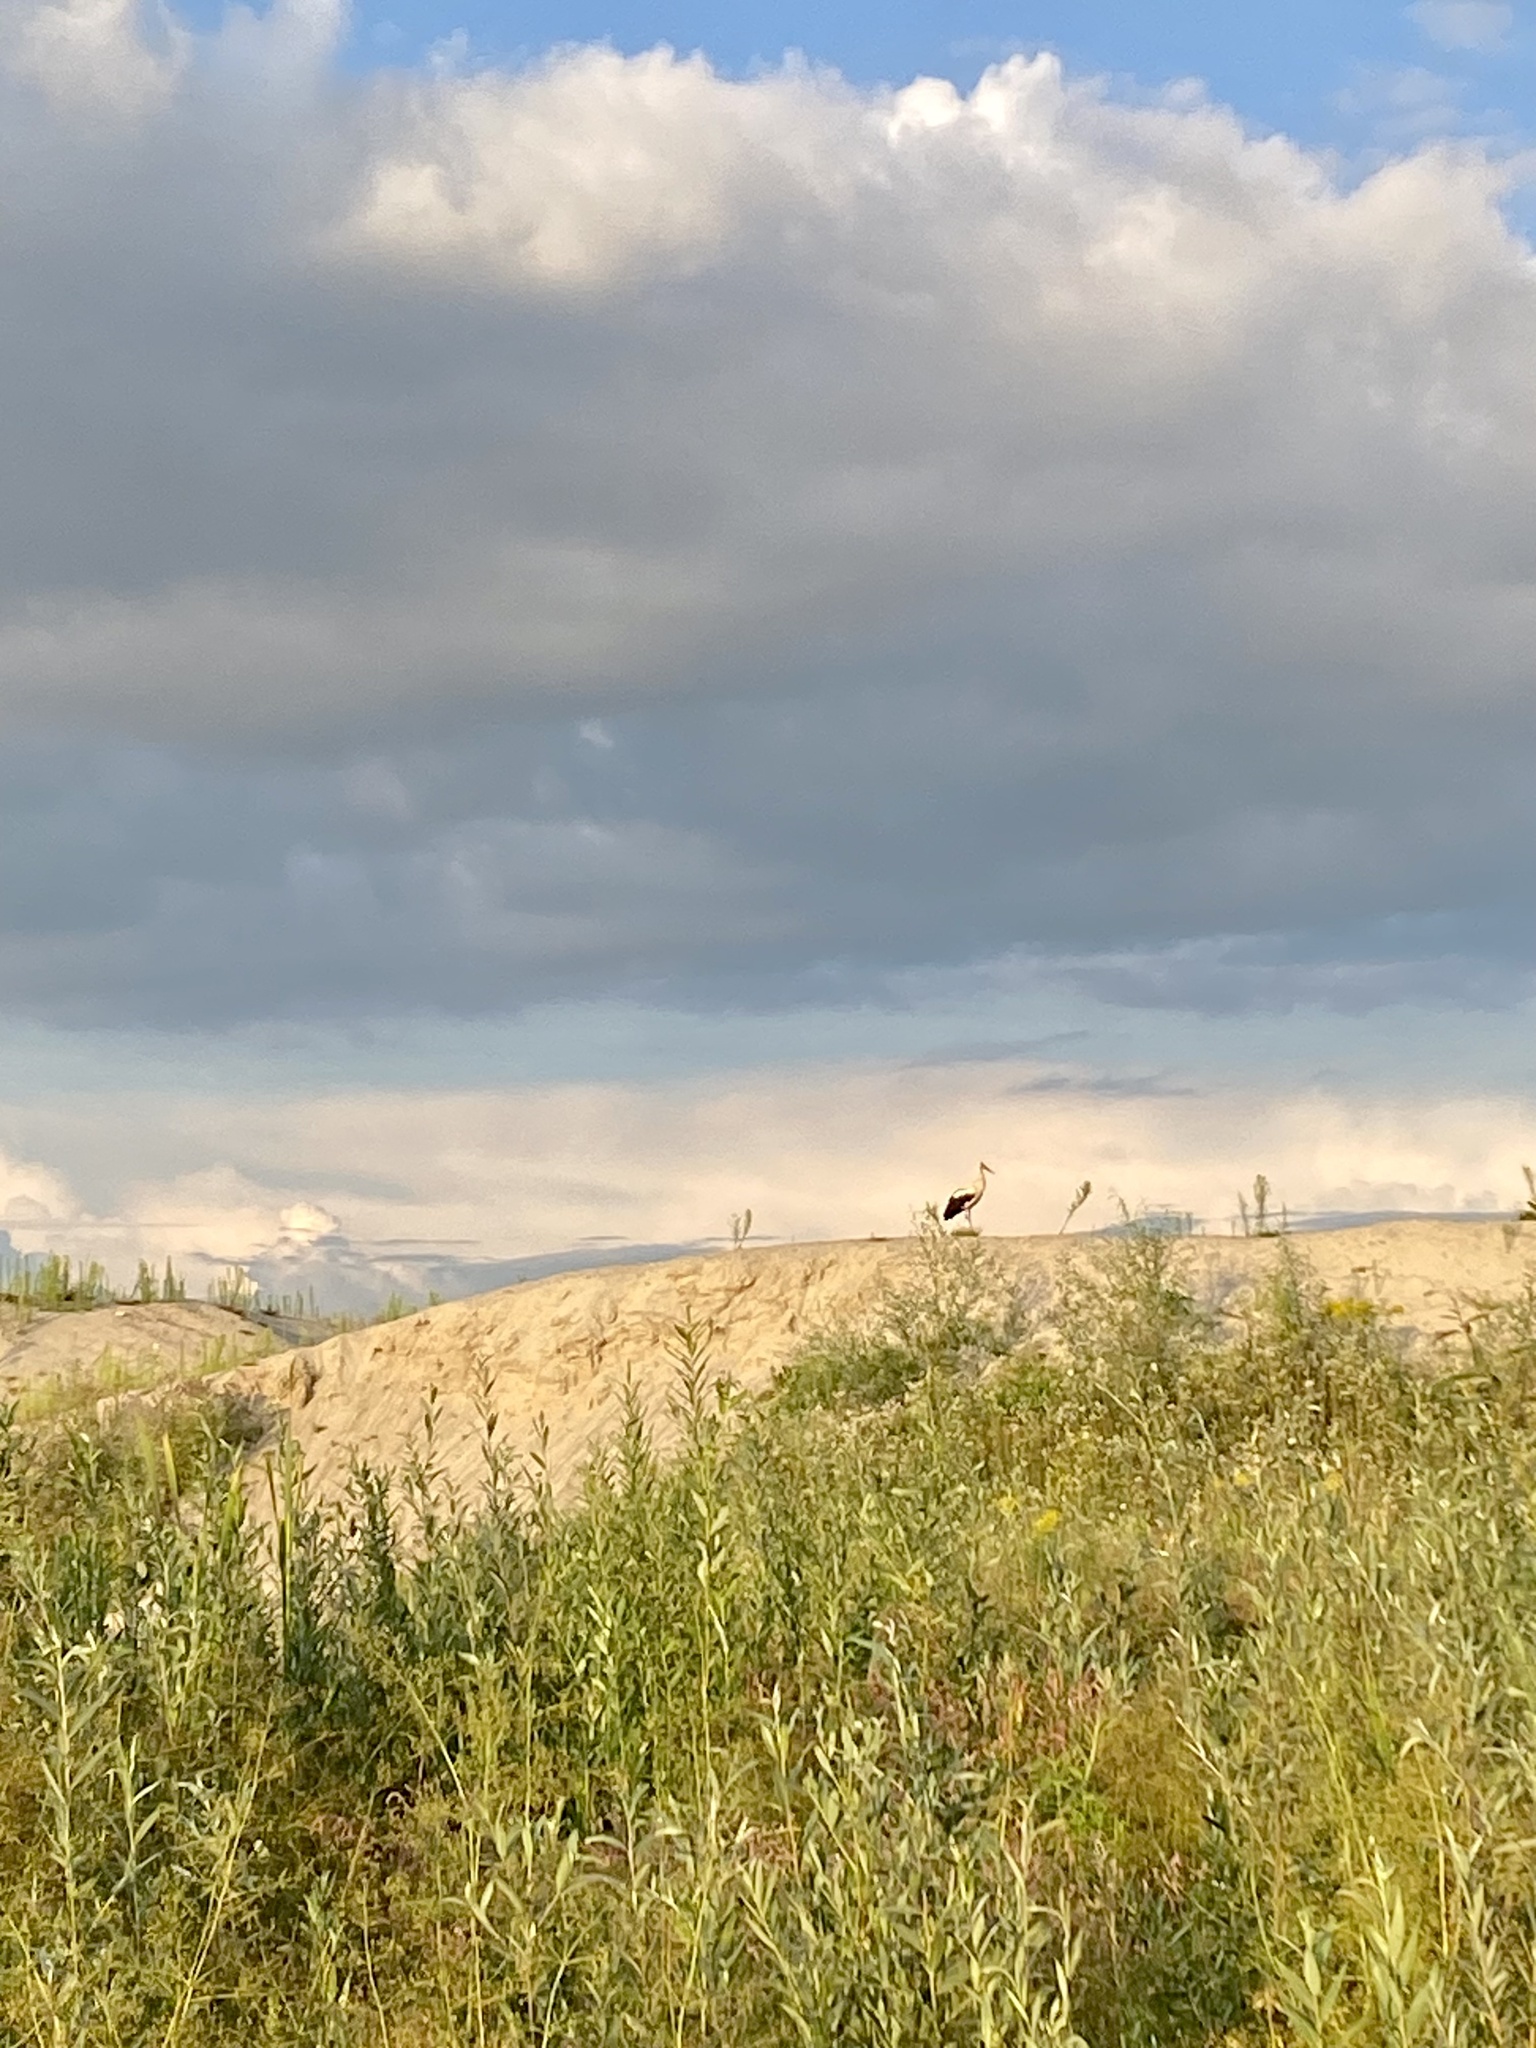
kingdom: Animalia
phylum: Chordata
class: Aves
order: Ciconiiformes
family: Ciconiidae
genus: Ciconia
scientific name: Ciconia ciconia
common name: White stork
